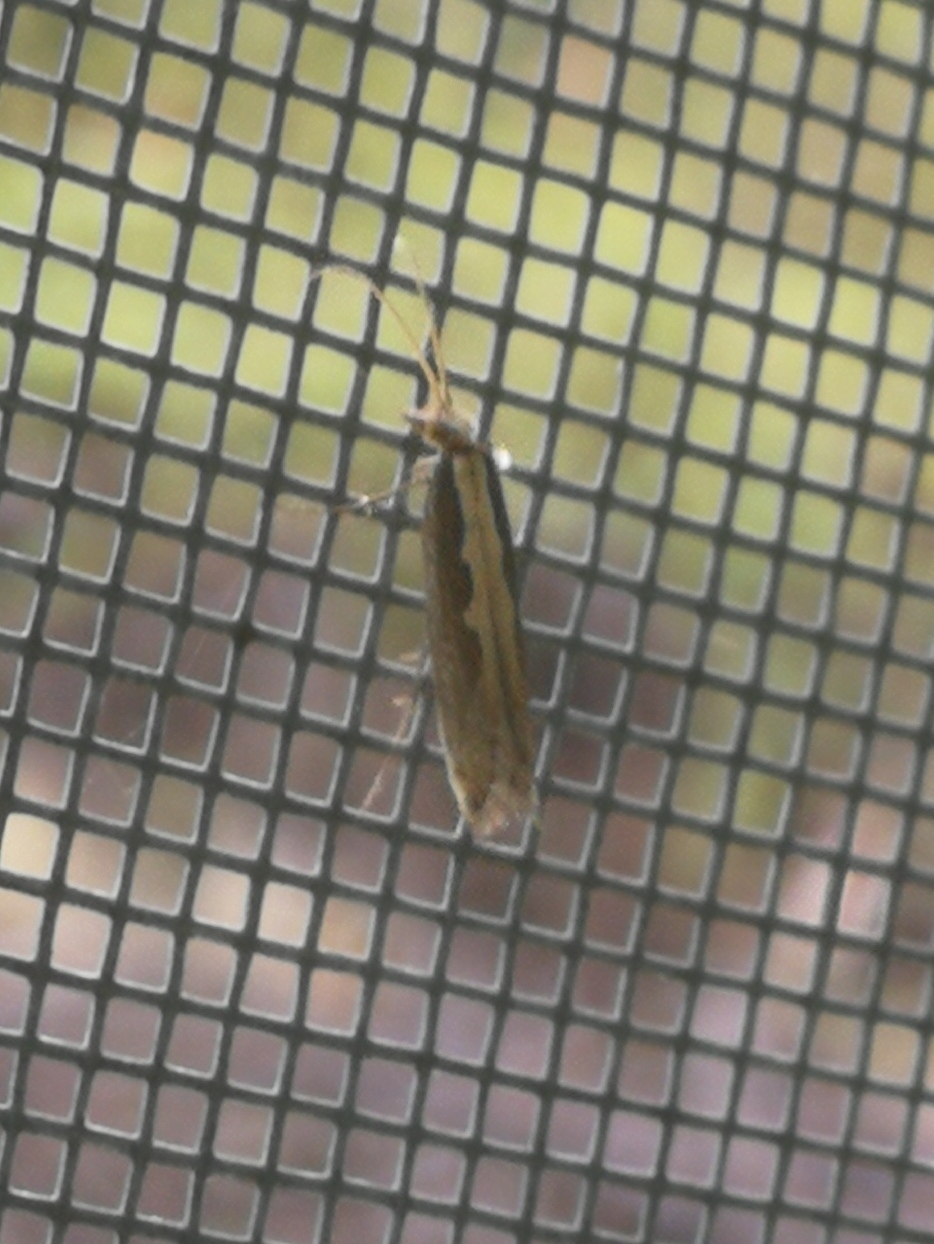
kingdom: Animalia
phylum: Arthropoda
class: Insecta
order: Lepidoptera
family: Plutellidae
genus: Plutella
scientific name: Plutella xylostella
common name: Diamond-back moth
